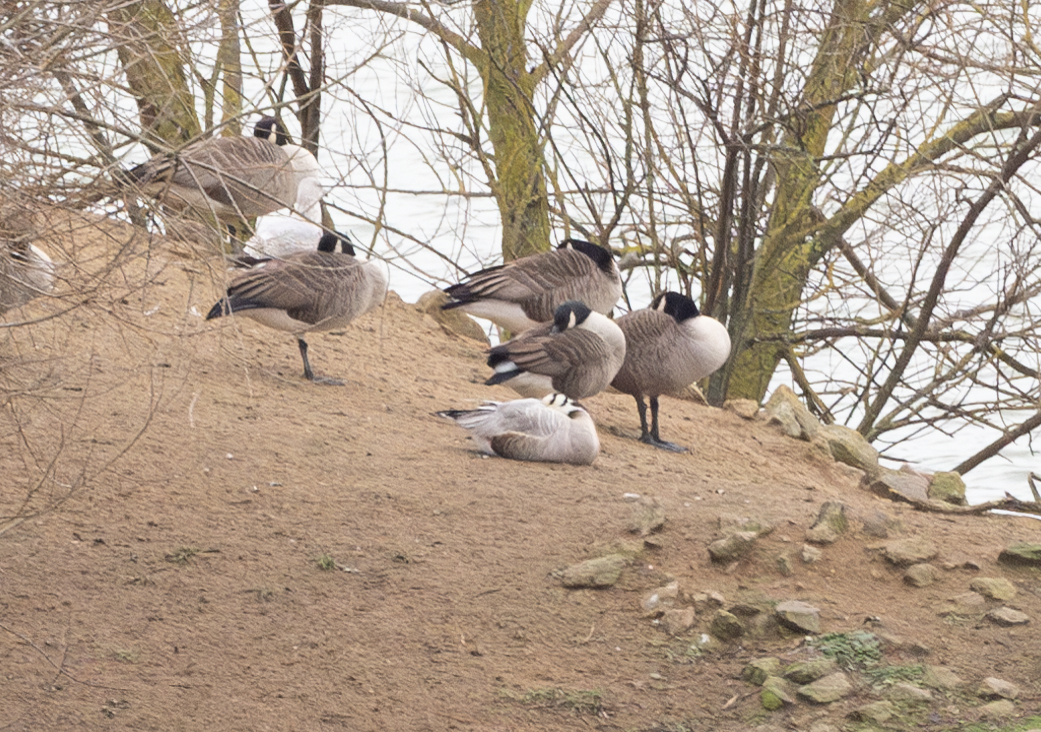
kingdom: Animalia
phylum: Chordata
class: Aves
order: Anseriformes
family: Anatidae
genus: Anser
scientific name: Anser indicus
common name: Bar-headed goose
